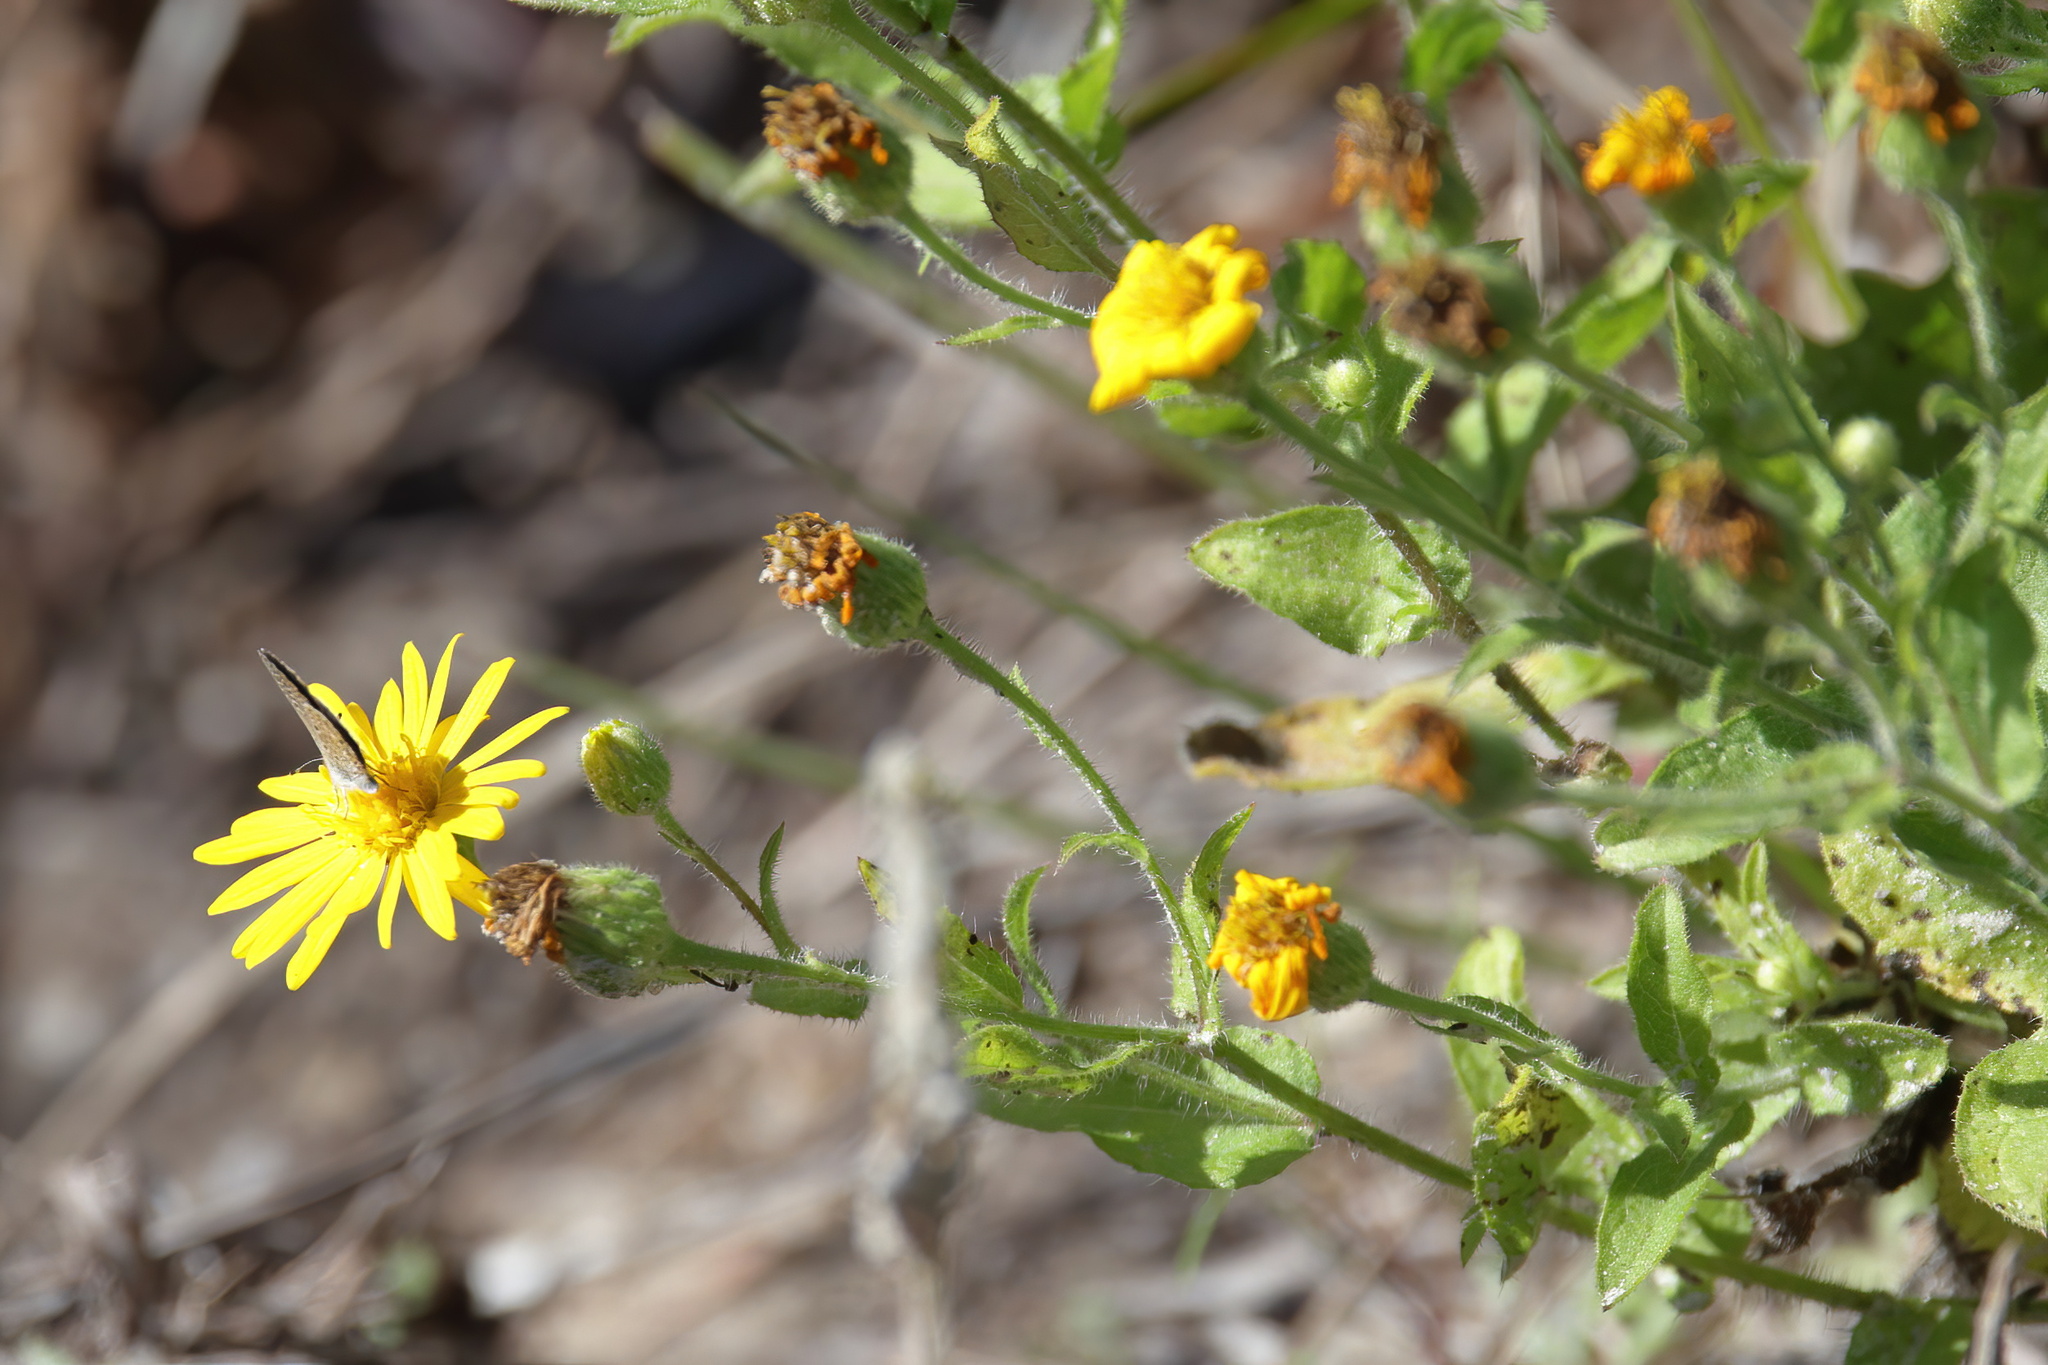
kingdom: Plantae
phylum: Tracheophyta
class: Magnoliopsida
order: Asterales
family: Asteraceae
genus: Heterotheca
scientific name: Heterotheca subaxillaris
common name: Camphorweed
